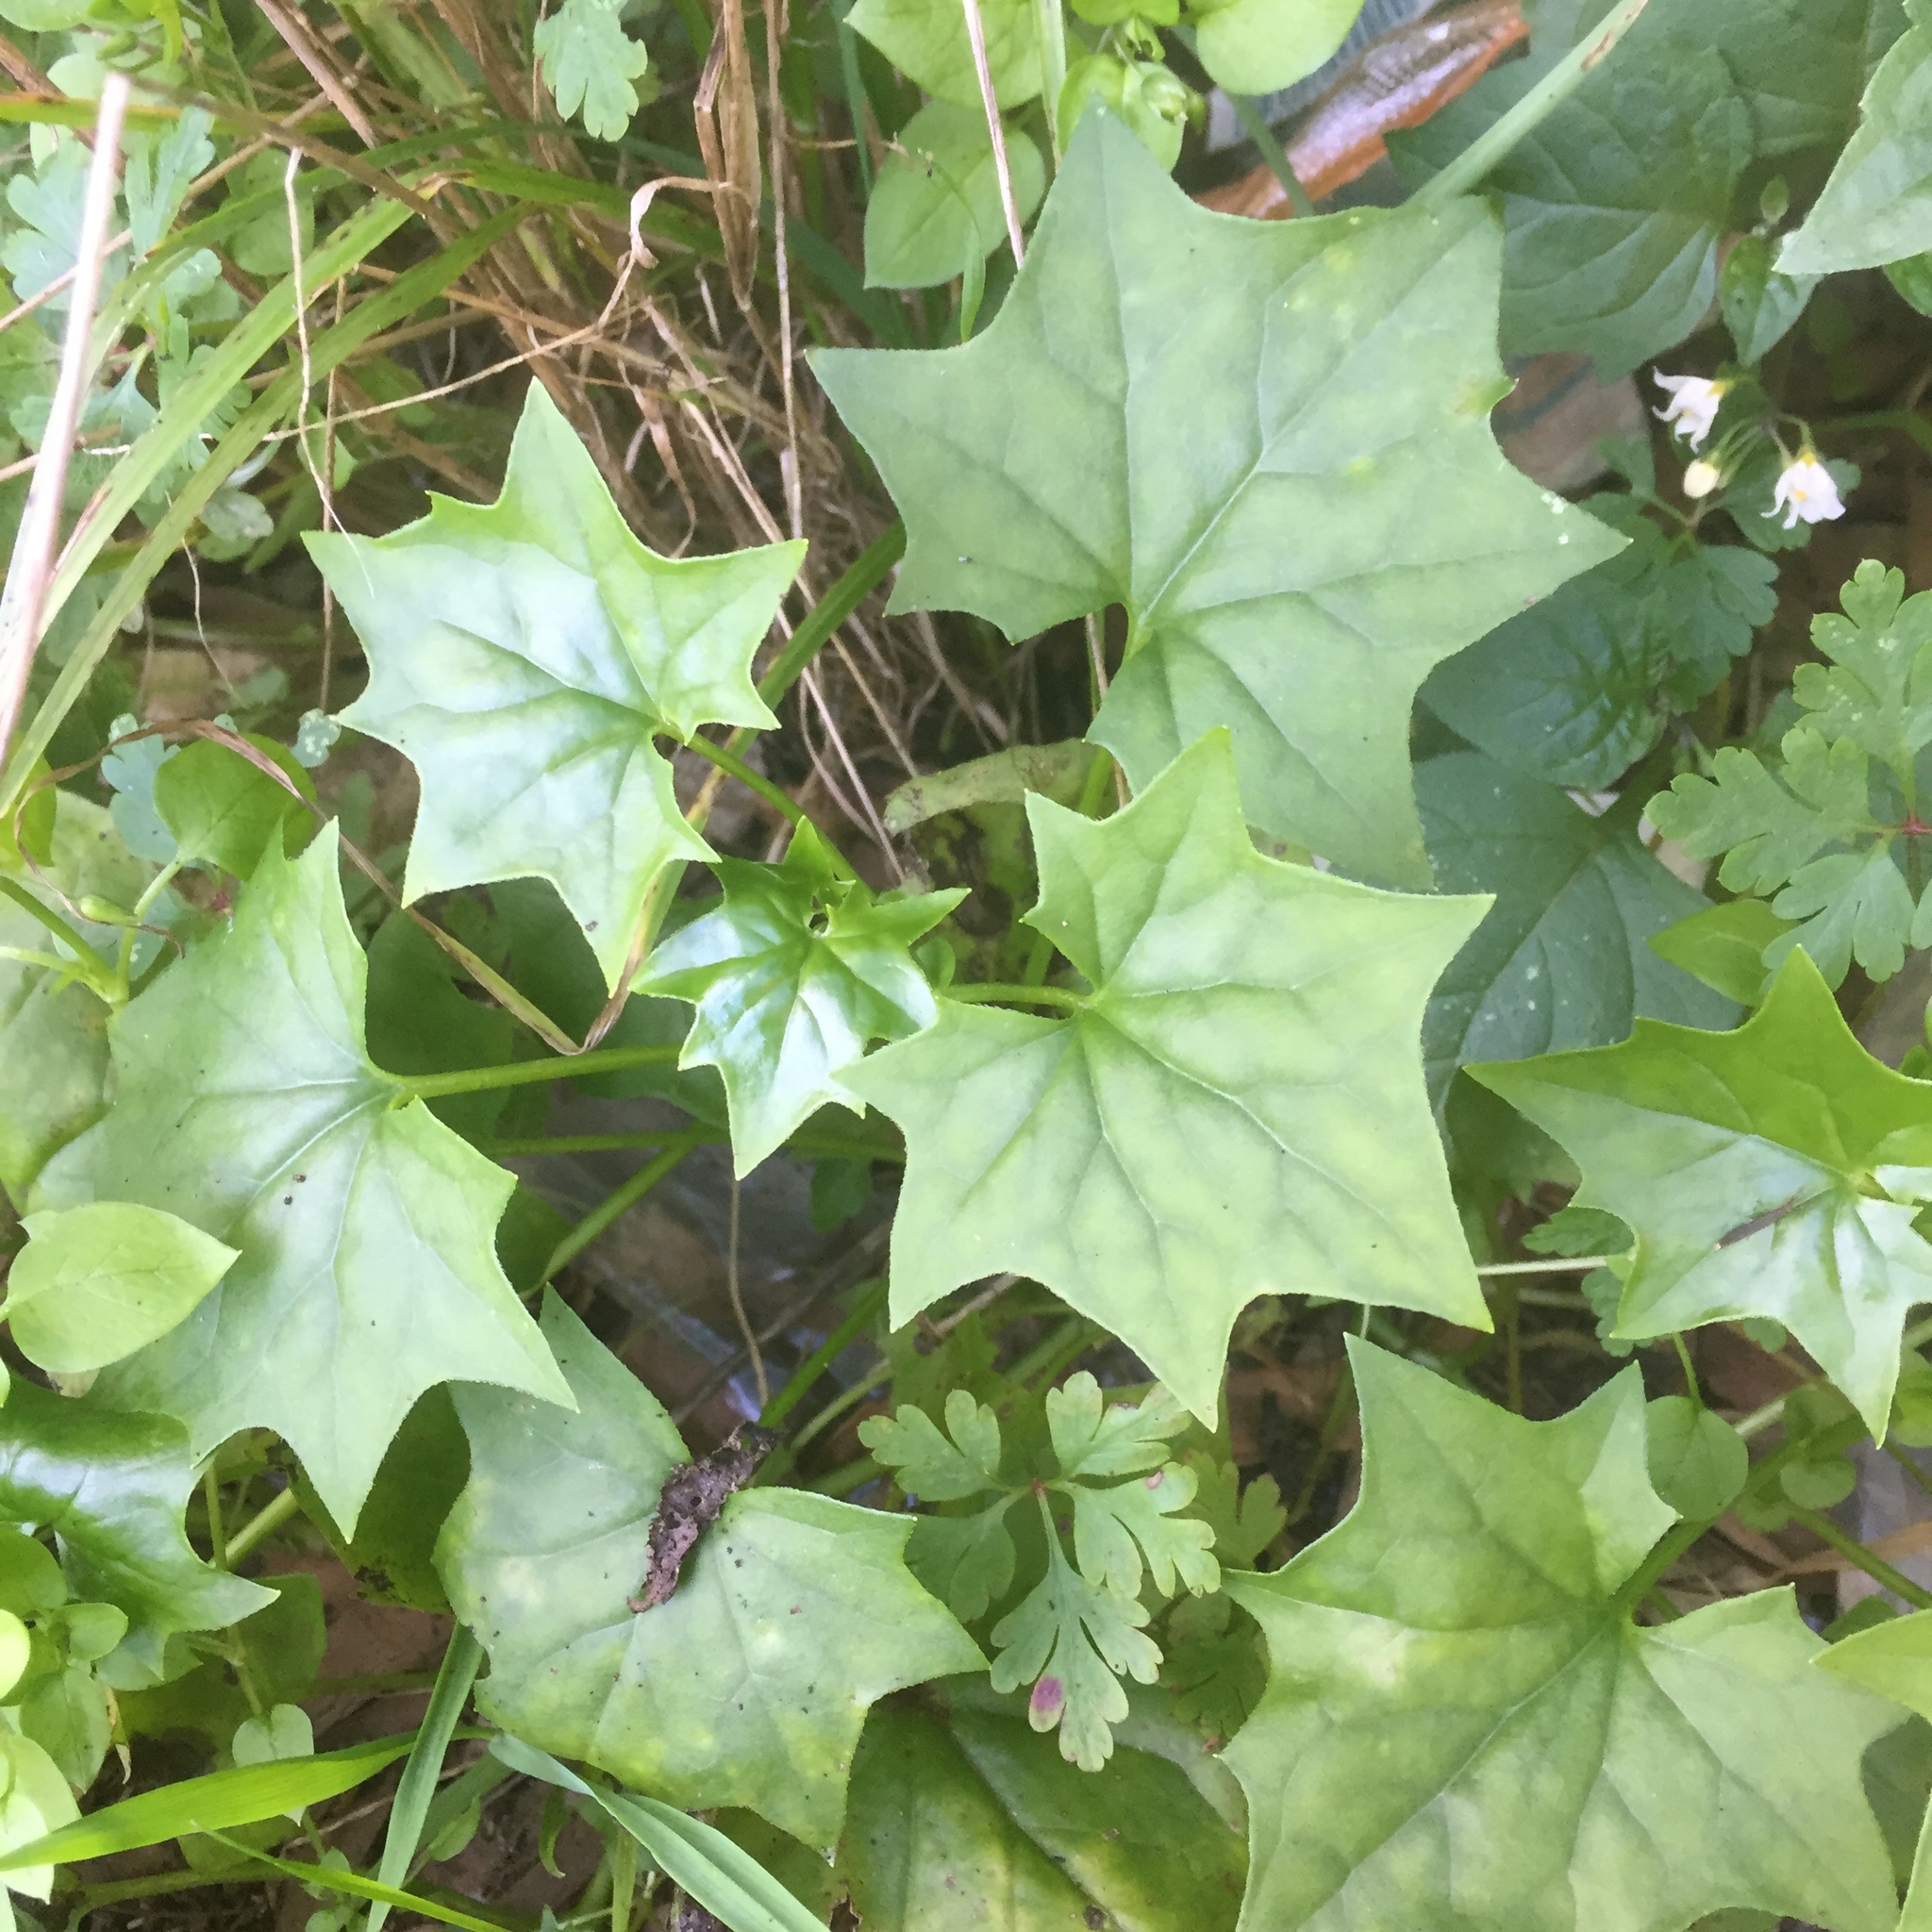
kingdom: Plantae
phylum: Tracheophyta
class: Magnoliopsida
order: Asterales
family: Asteraceae
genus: Delairea
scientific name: Delairea odorata
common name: Cape-ivy
